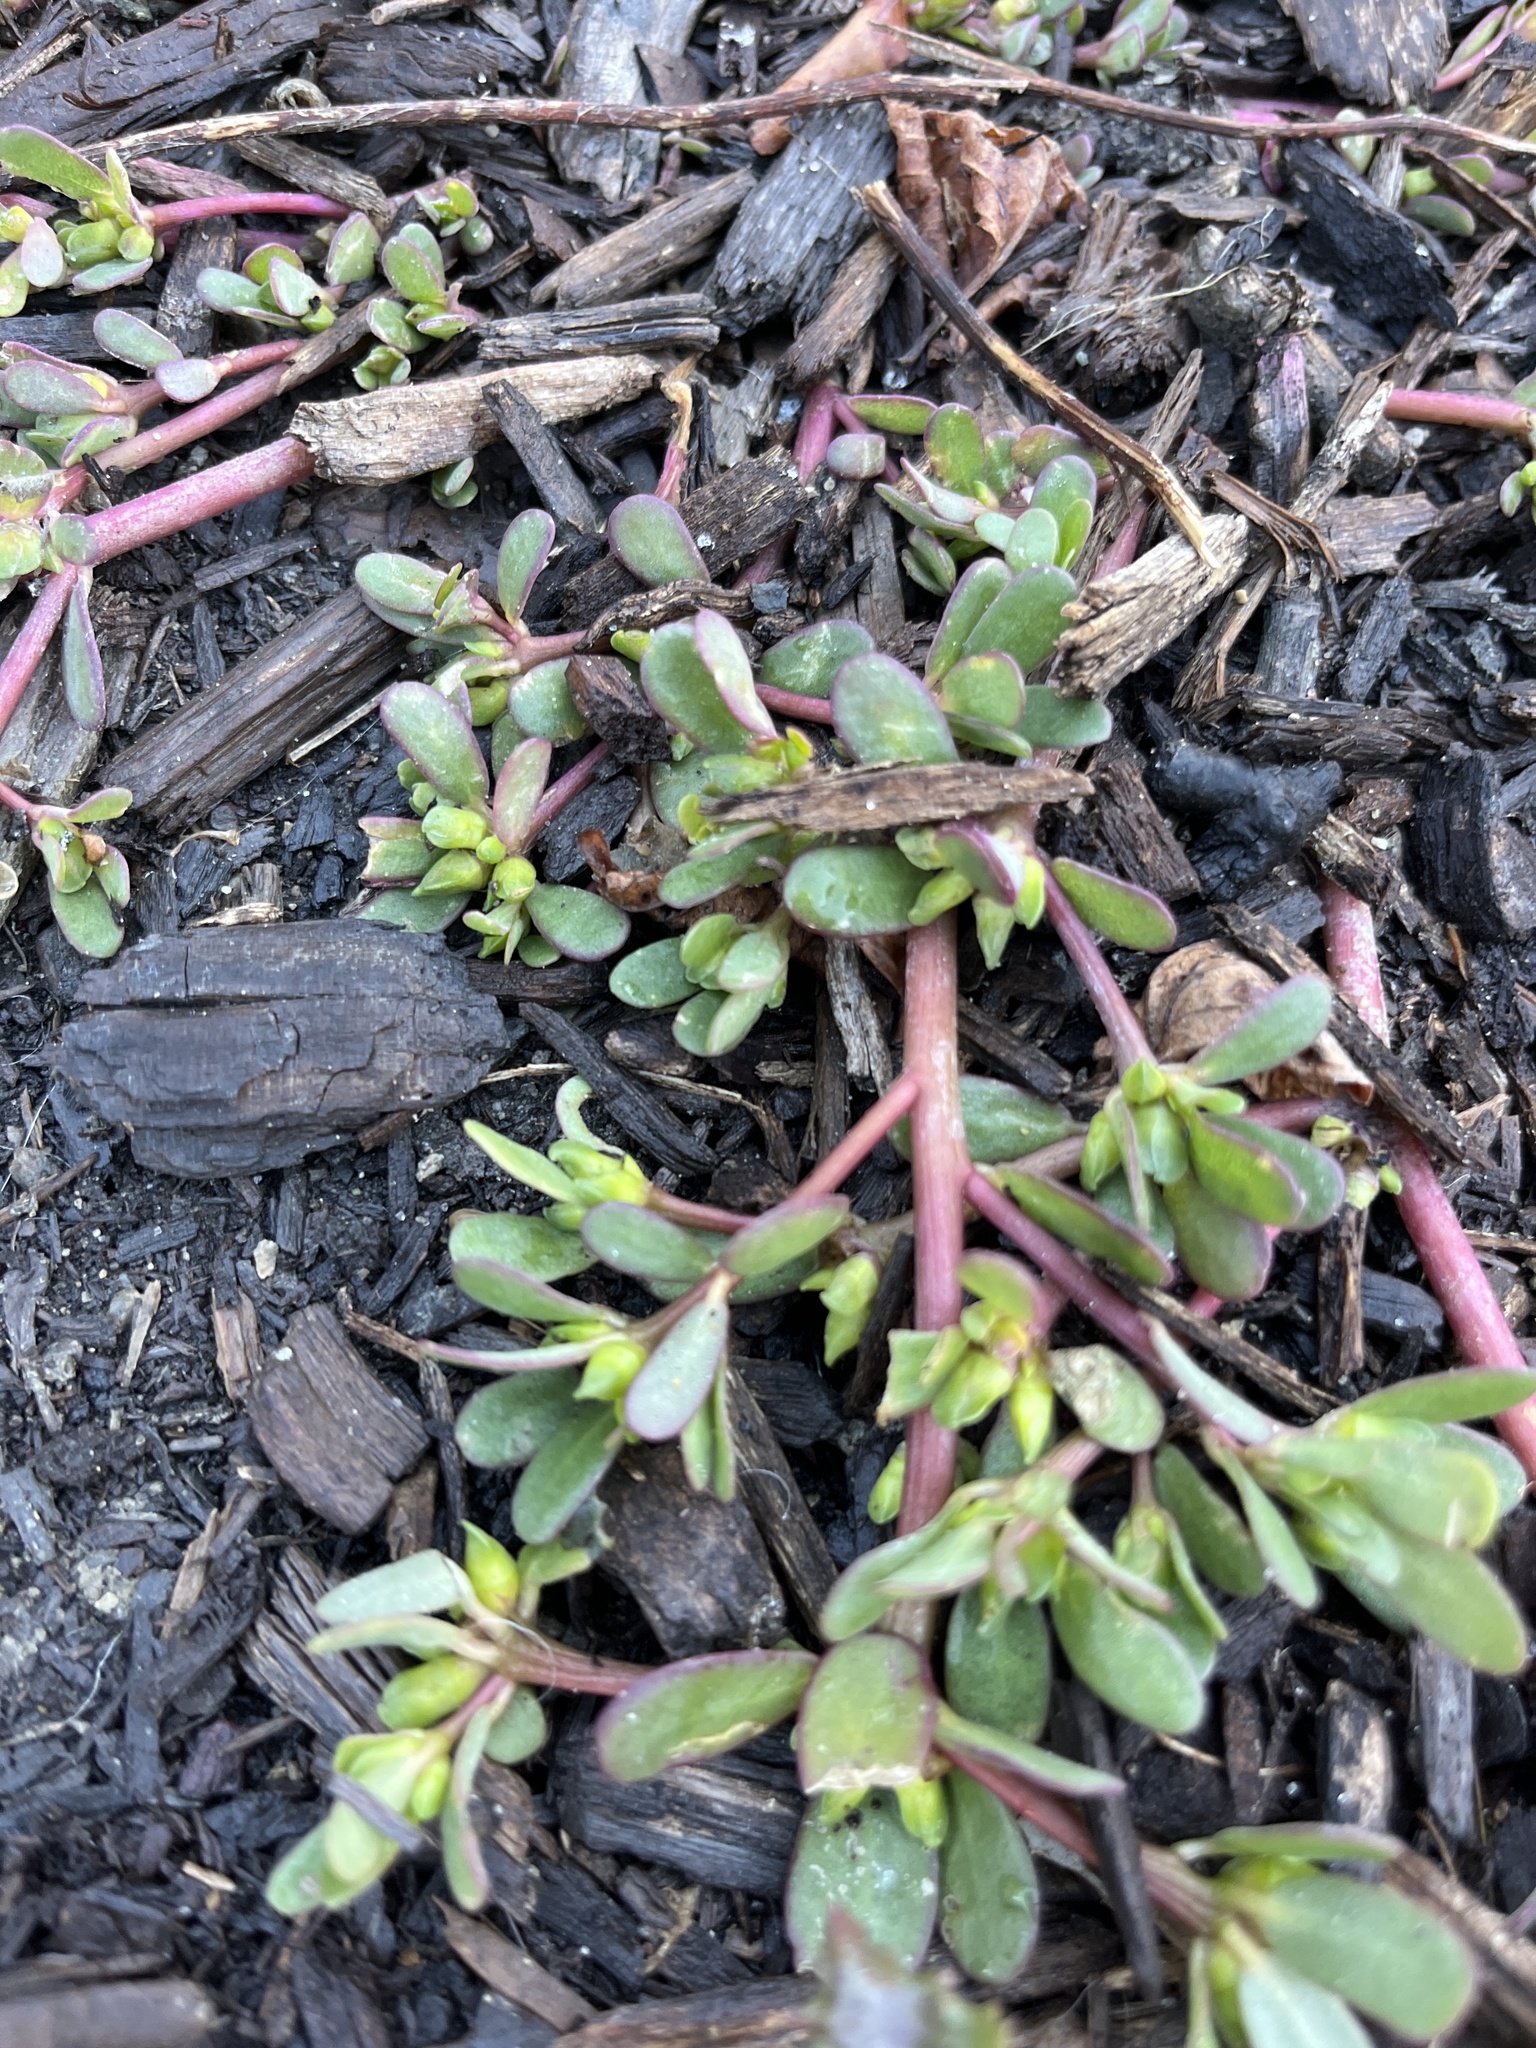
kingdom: Plantae
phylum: Tracheophyta
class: Magnoliopsida
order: Caryophyllales
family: Portulacaceae
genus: Portulaca
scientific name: Portulaca oleracea
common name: Common purslane
